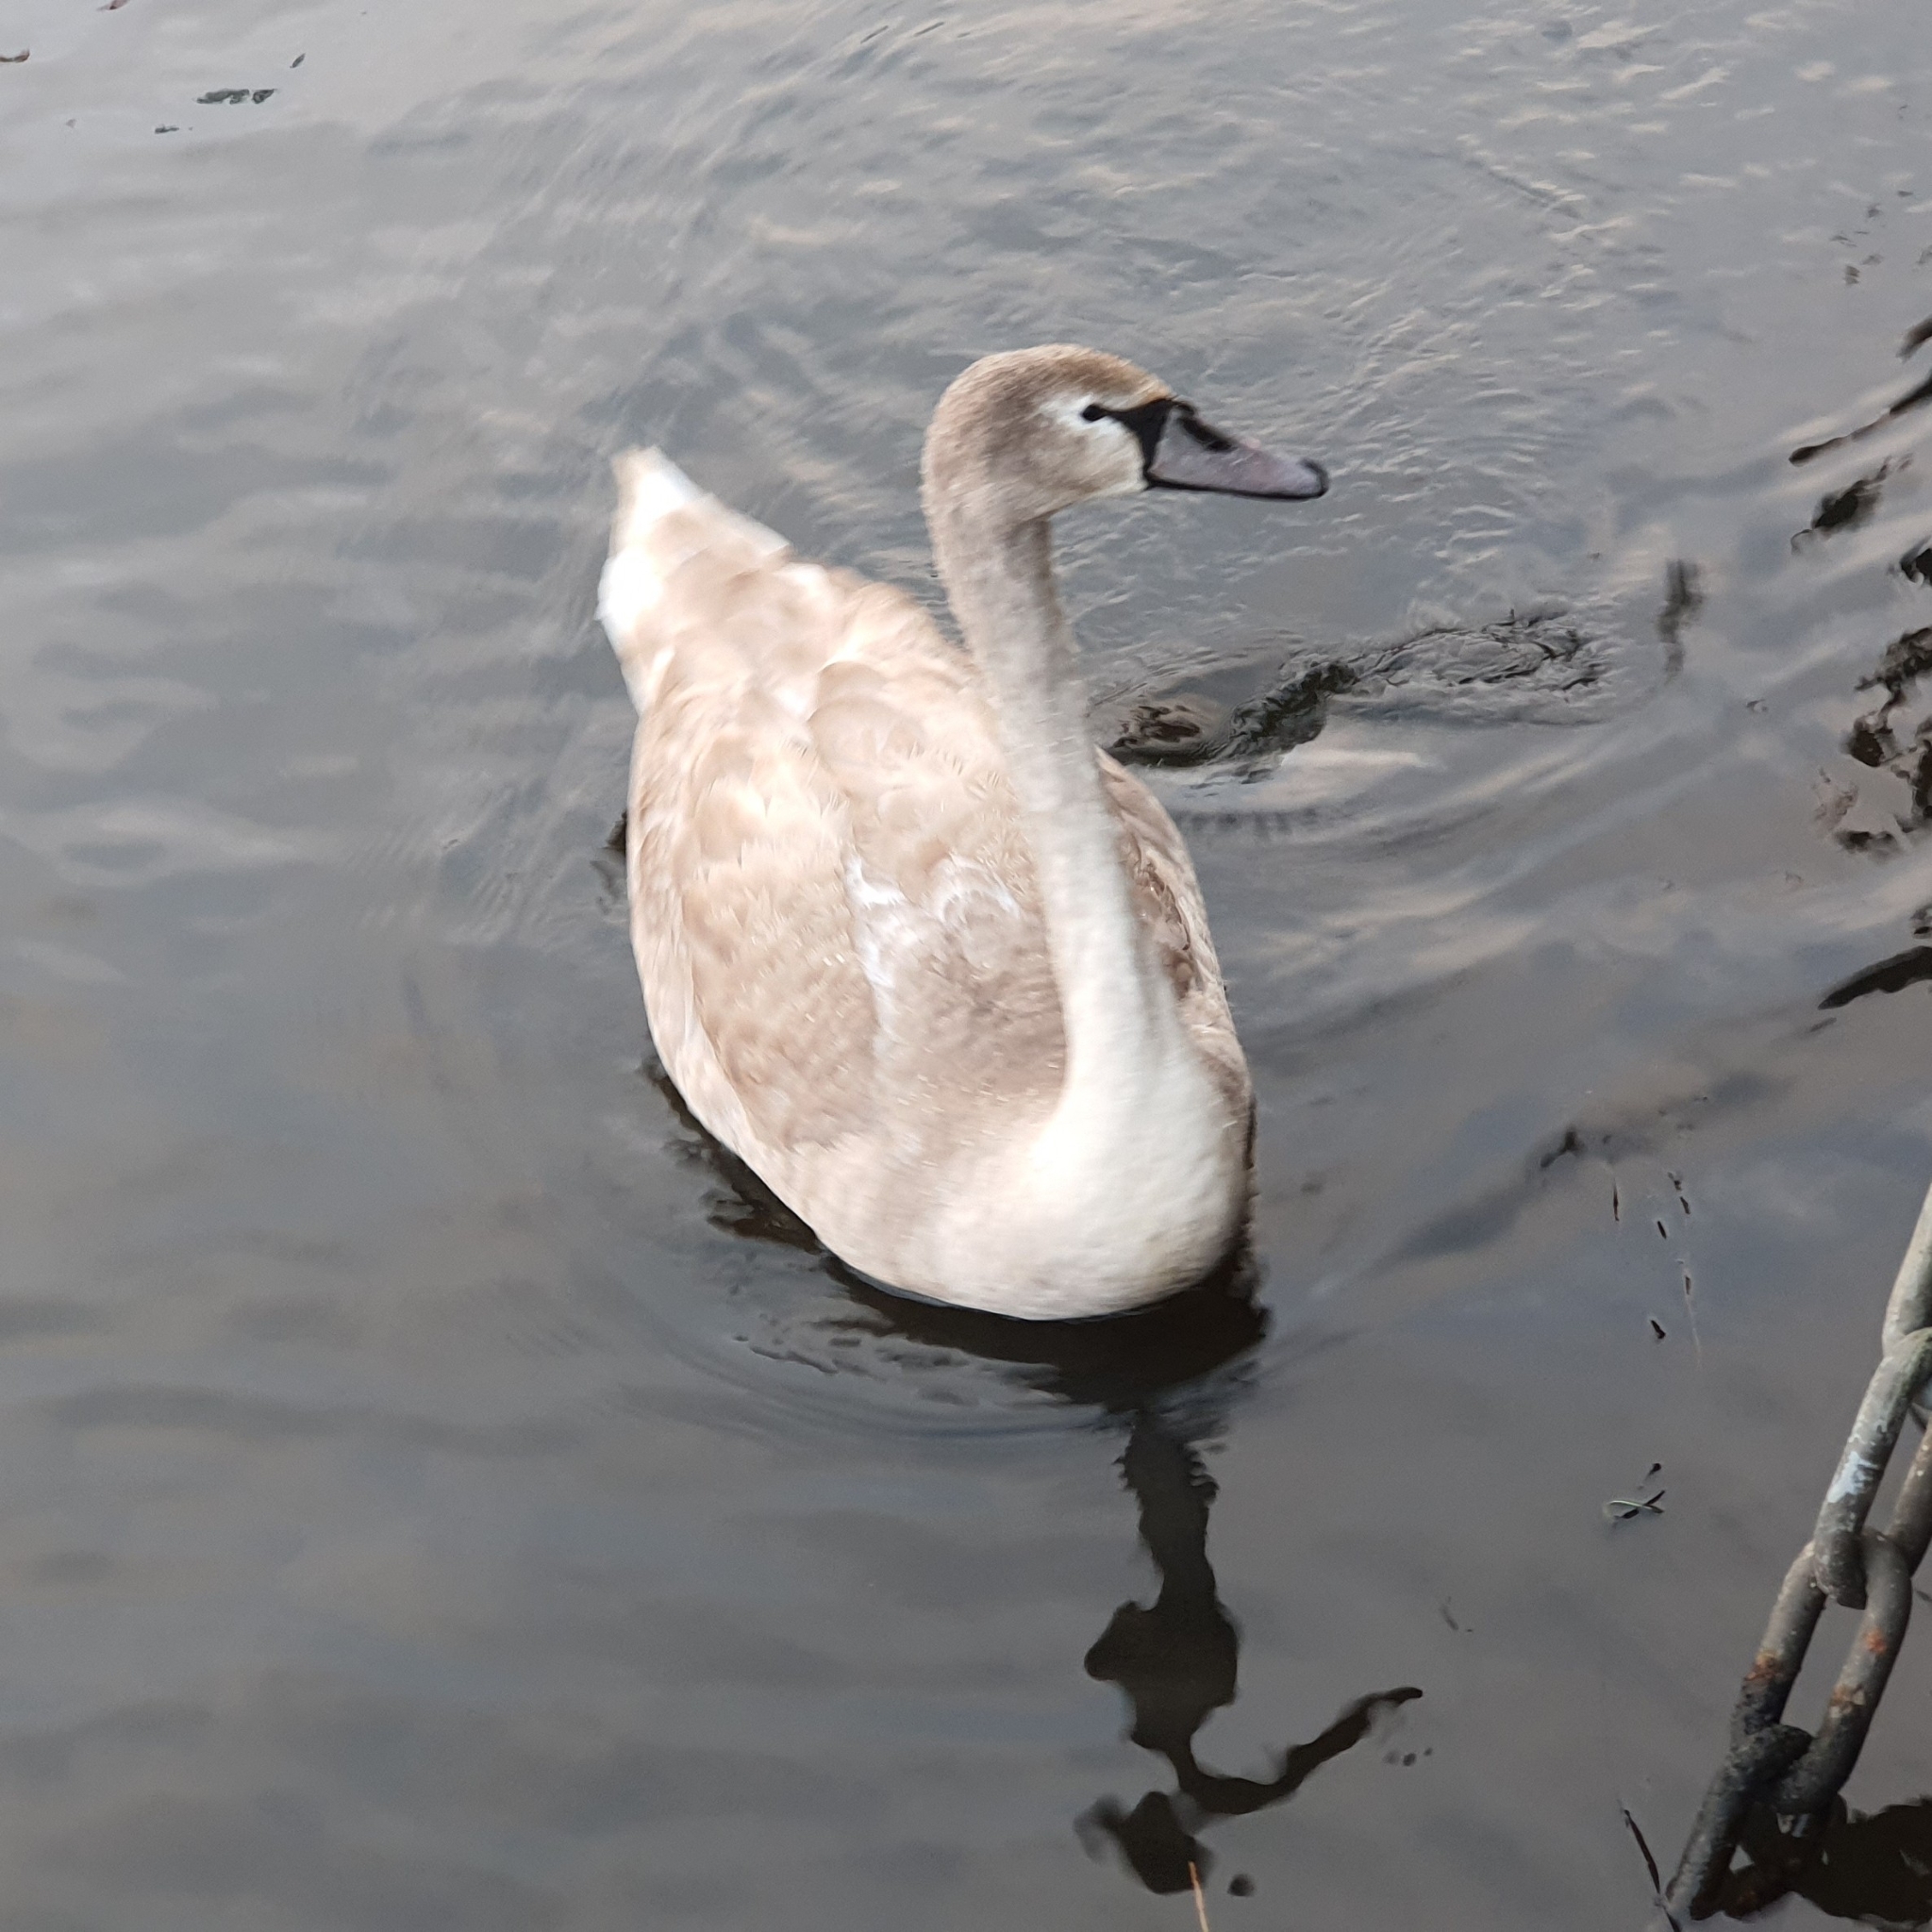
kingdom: Animalia
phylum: Chordata
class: Aves
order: Anseriformes
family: Anatidae
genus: Cygnus
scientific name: Cygnus olor
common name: Mute swan
